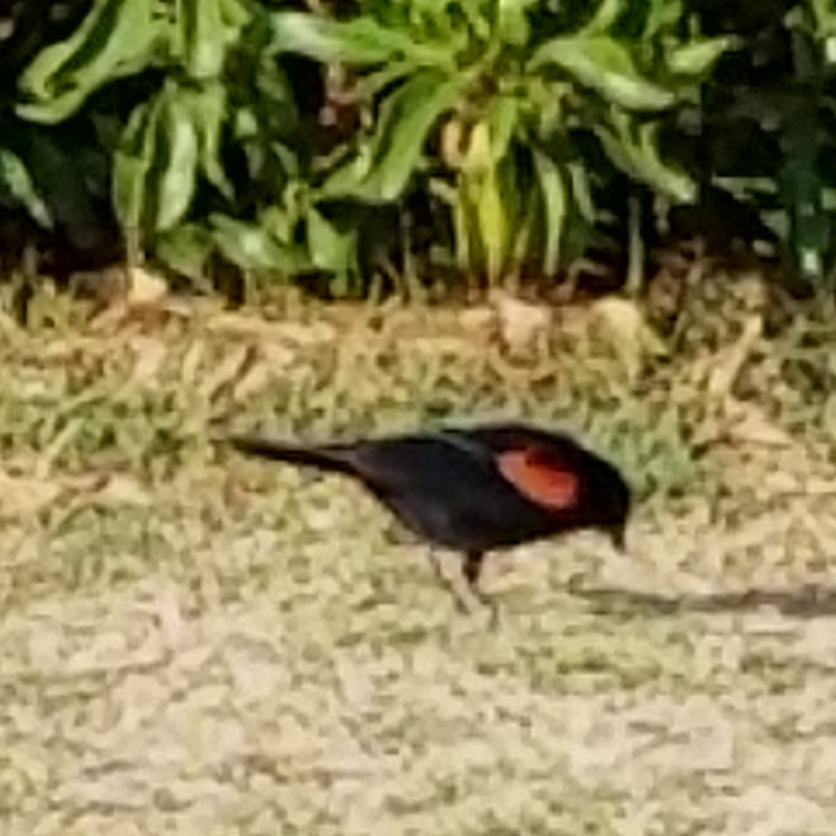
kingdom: Animalia
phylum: Chordata
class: Aves
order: Passeriformes
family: Icteridae
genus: Agelaius
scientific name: Agelaius phoeniceus
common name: Red-winged blackbird
